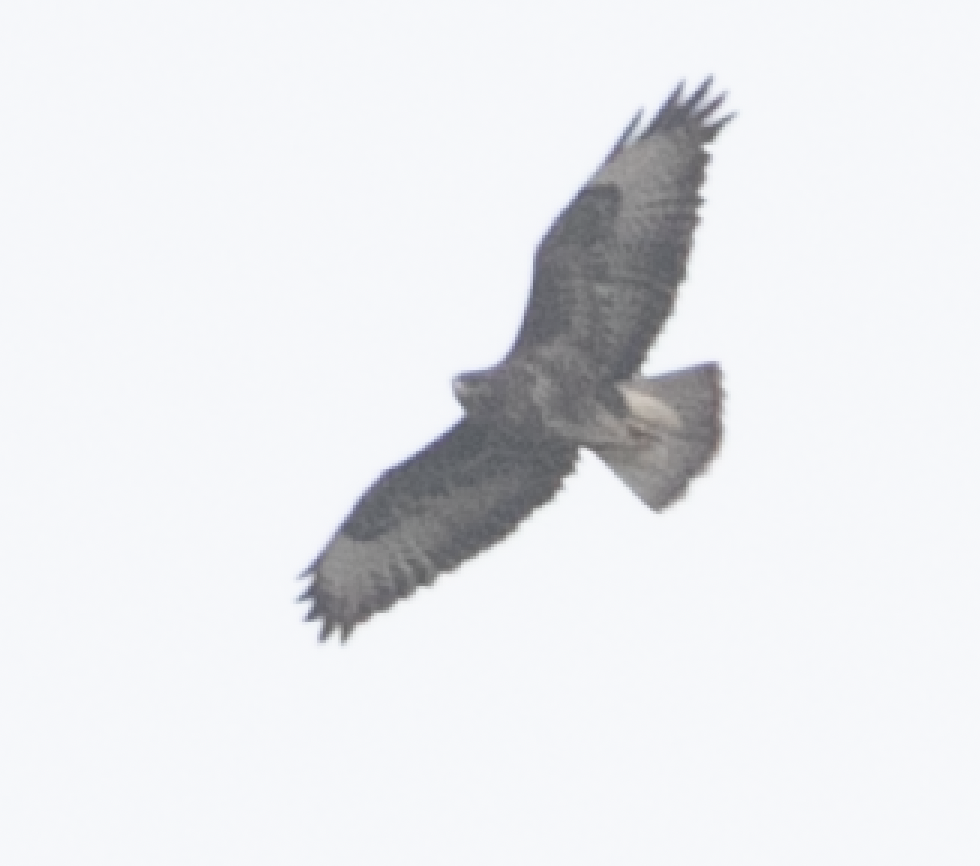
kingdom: Animalia
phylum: Chordata
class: Aves
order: Accipitriformes
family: Accipitridae
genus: Buteo
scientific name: Buteo buteo
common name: Common buzzard
